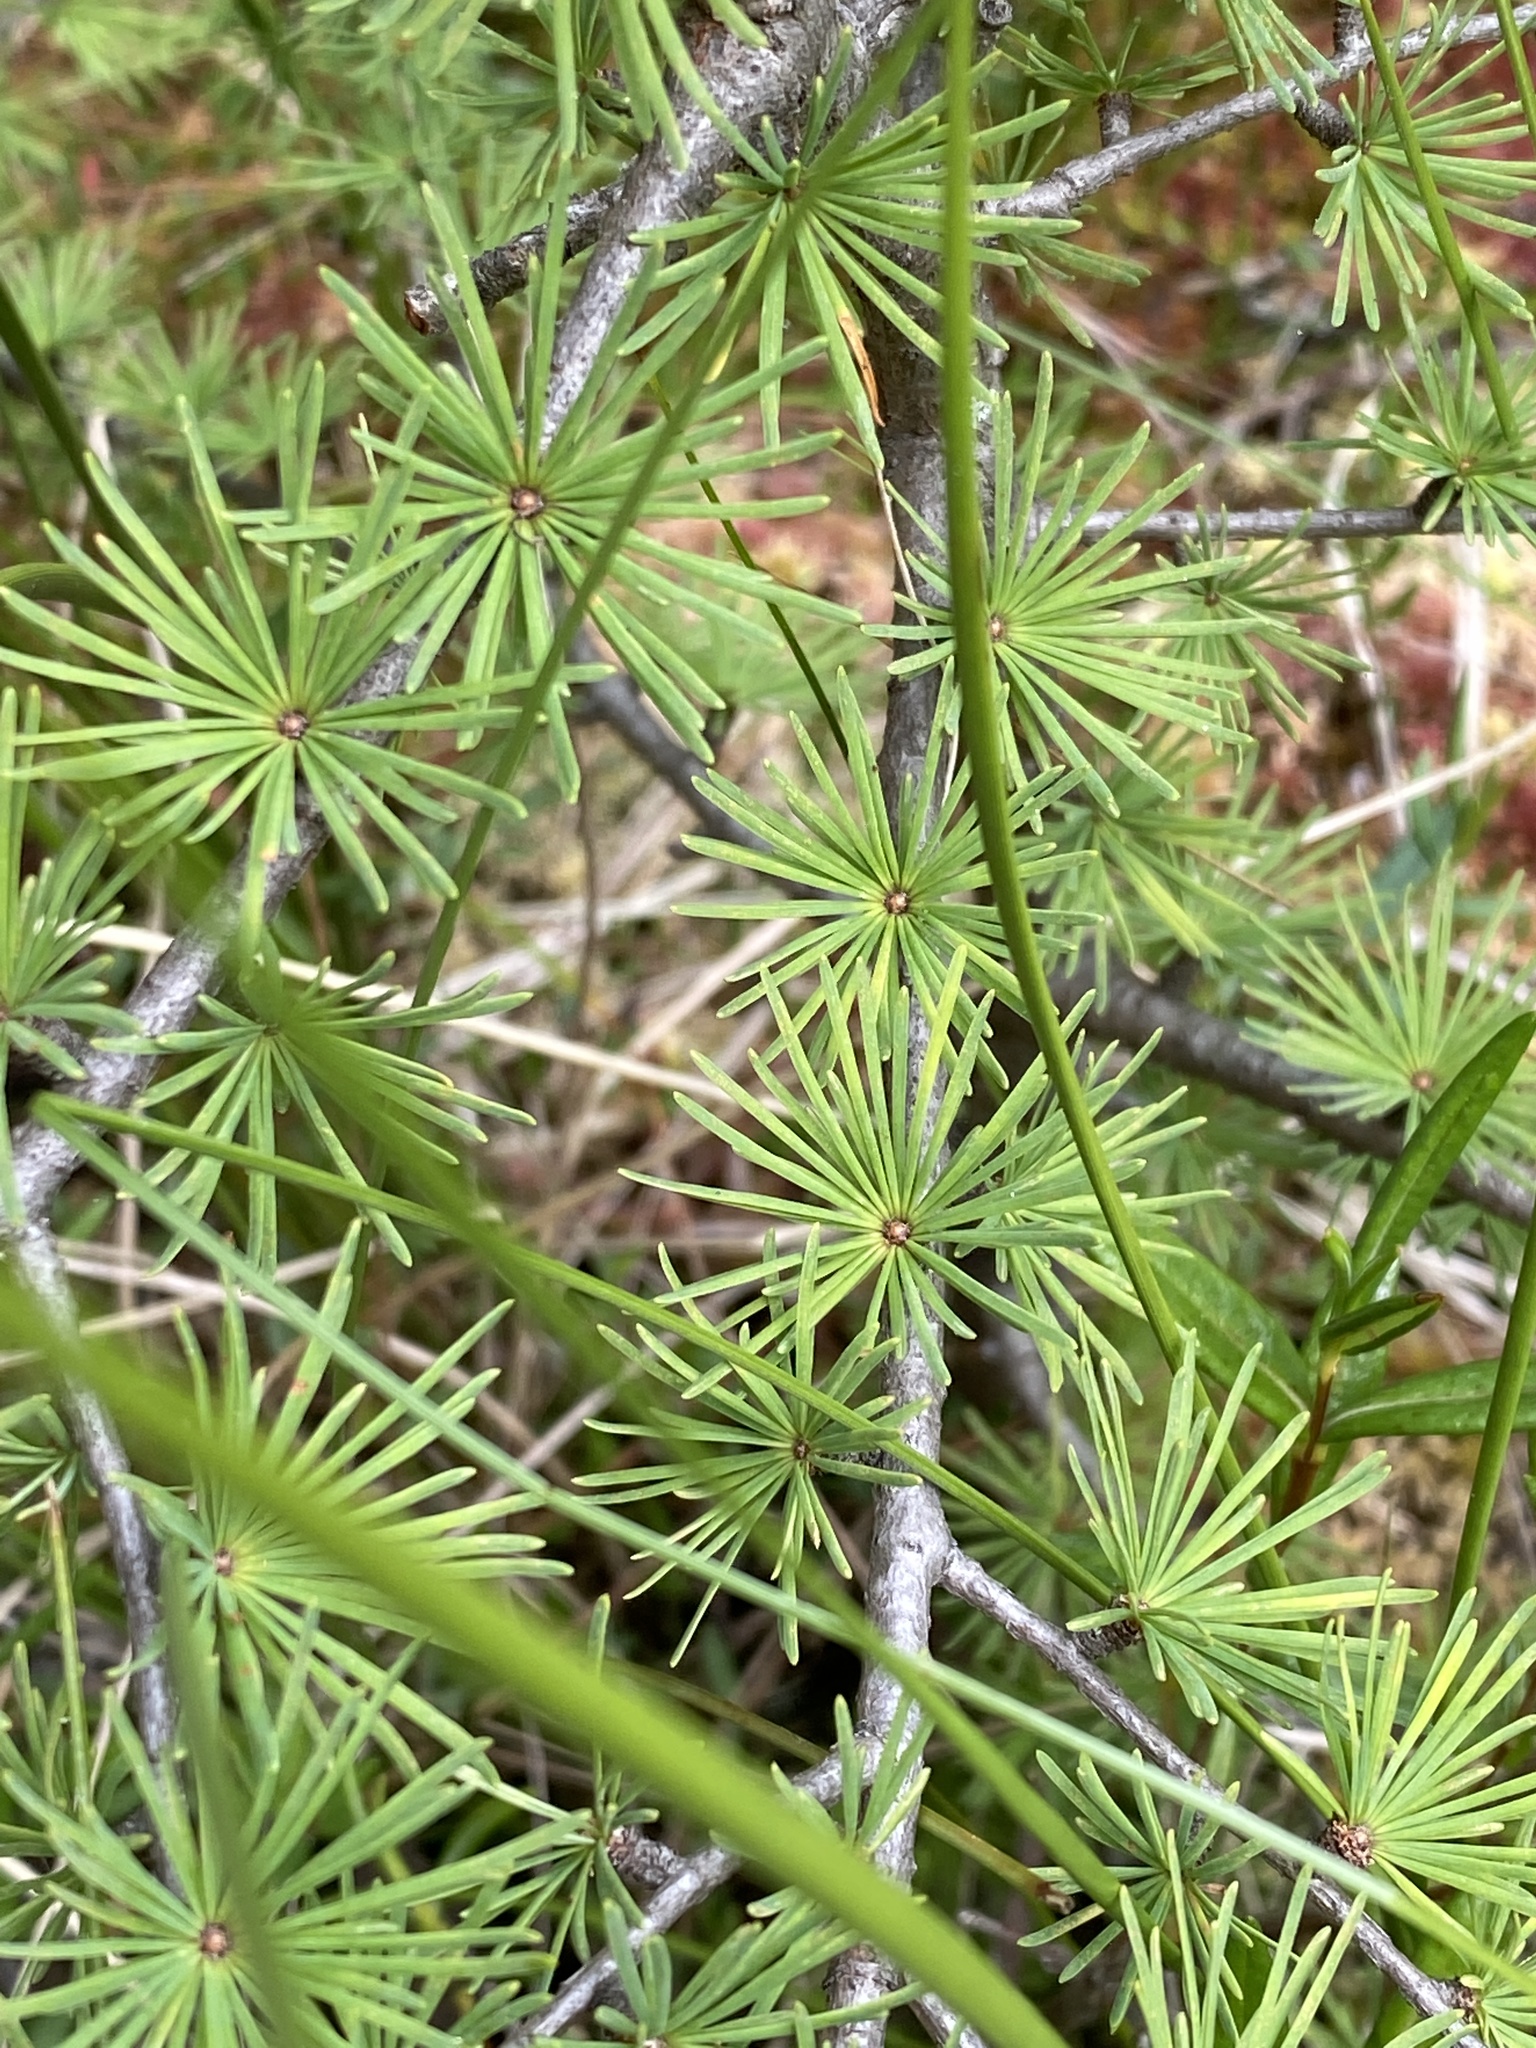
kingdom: Plantae
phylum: Tracheophyta
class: Pinopsida
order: Pinales
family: Pinaceae
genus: Larix
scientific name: Larix laricina
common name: American larch
